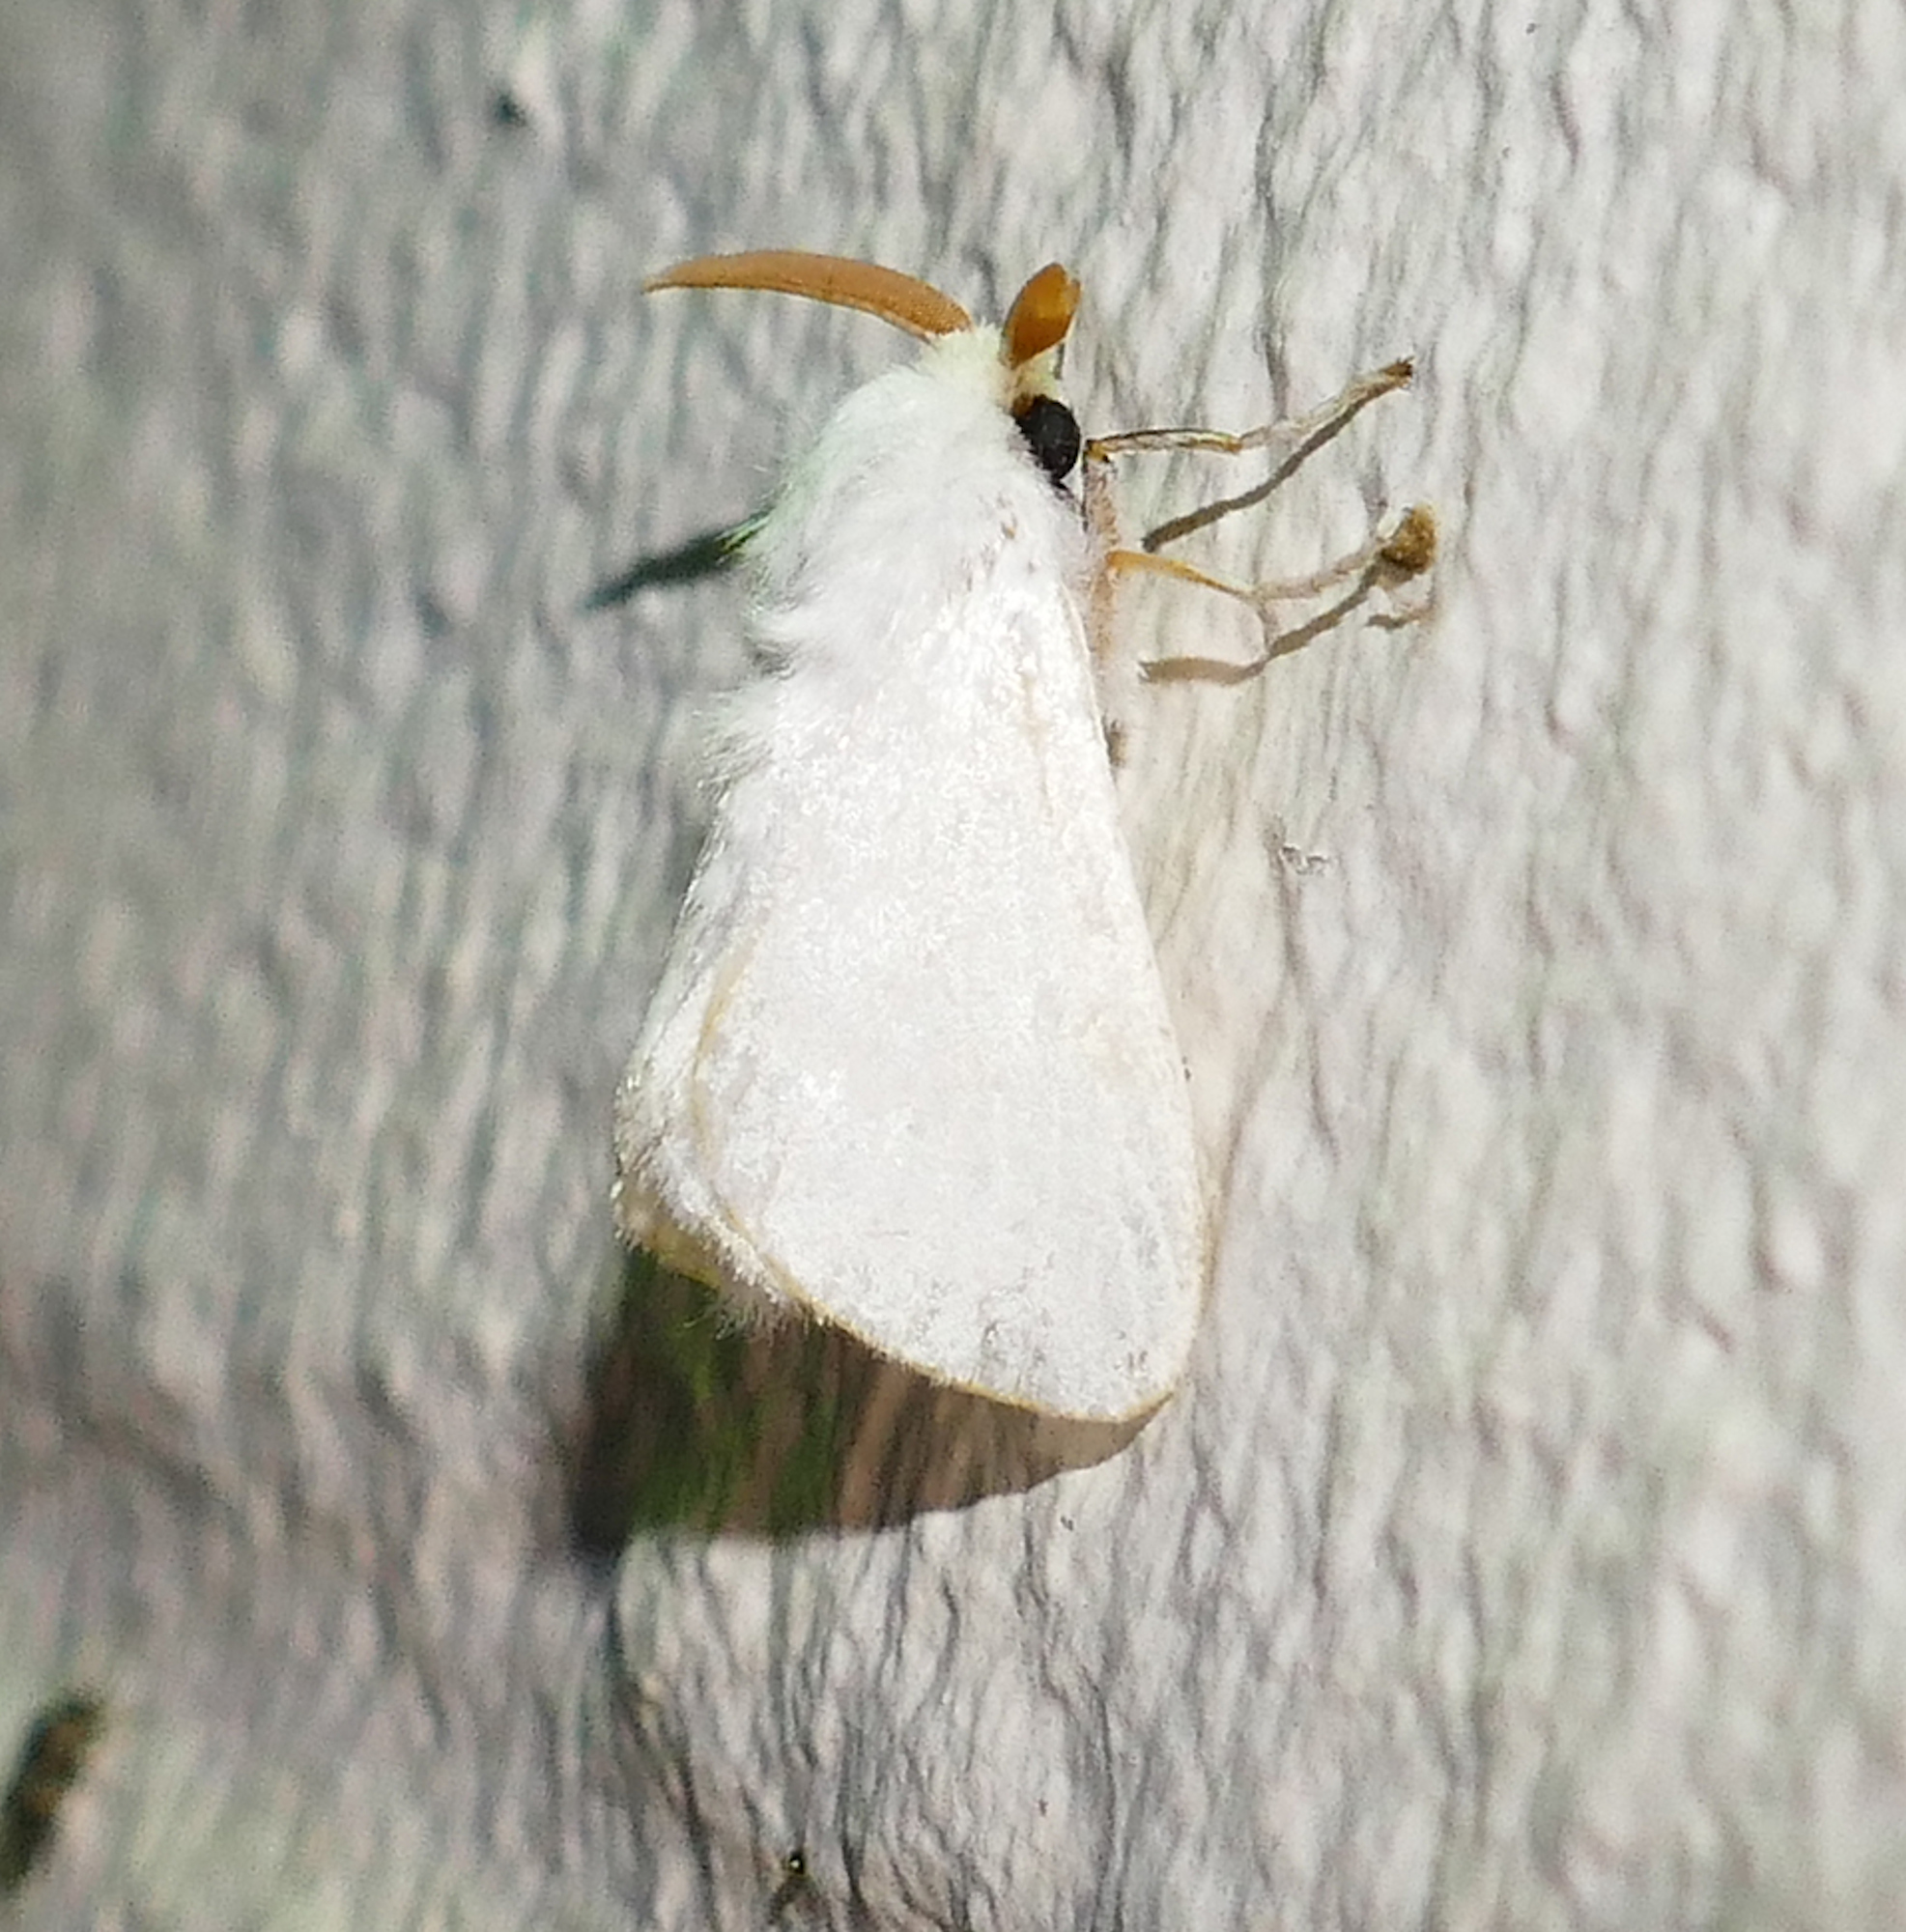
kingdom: Animalia
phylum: Arthropoda
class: Insecta
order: Lepidoptera
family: Megalopygidae
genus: Norape
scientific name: Norape cretata
